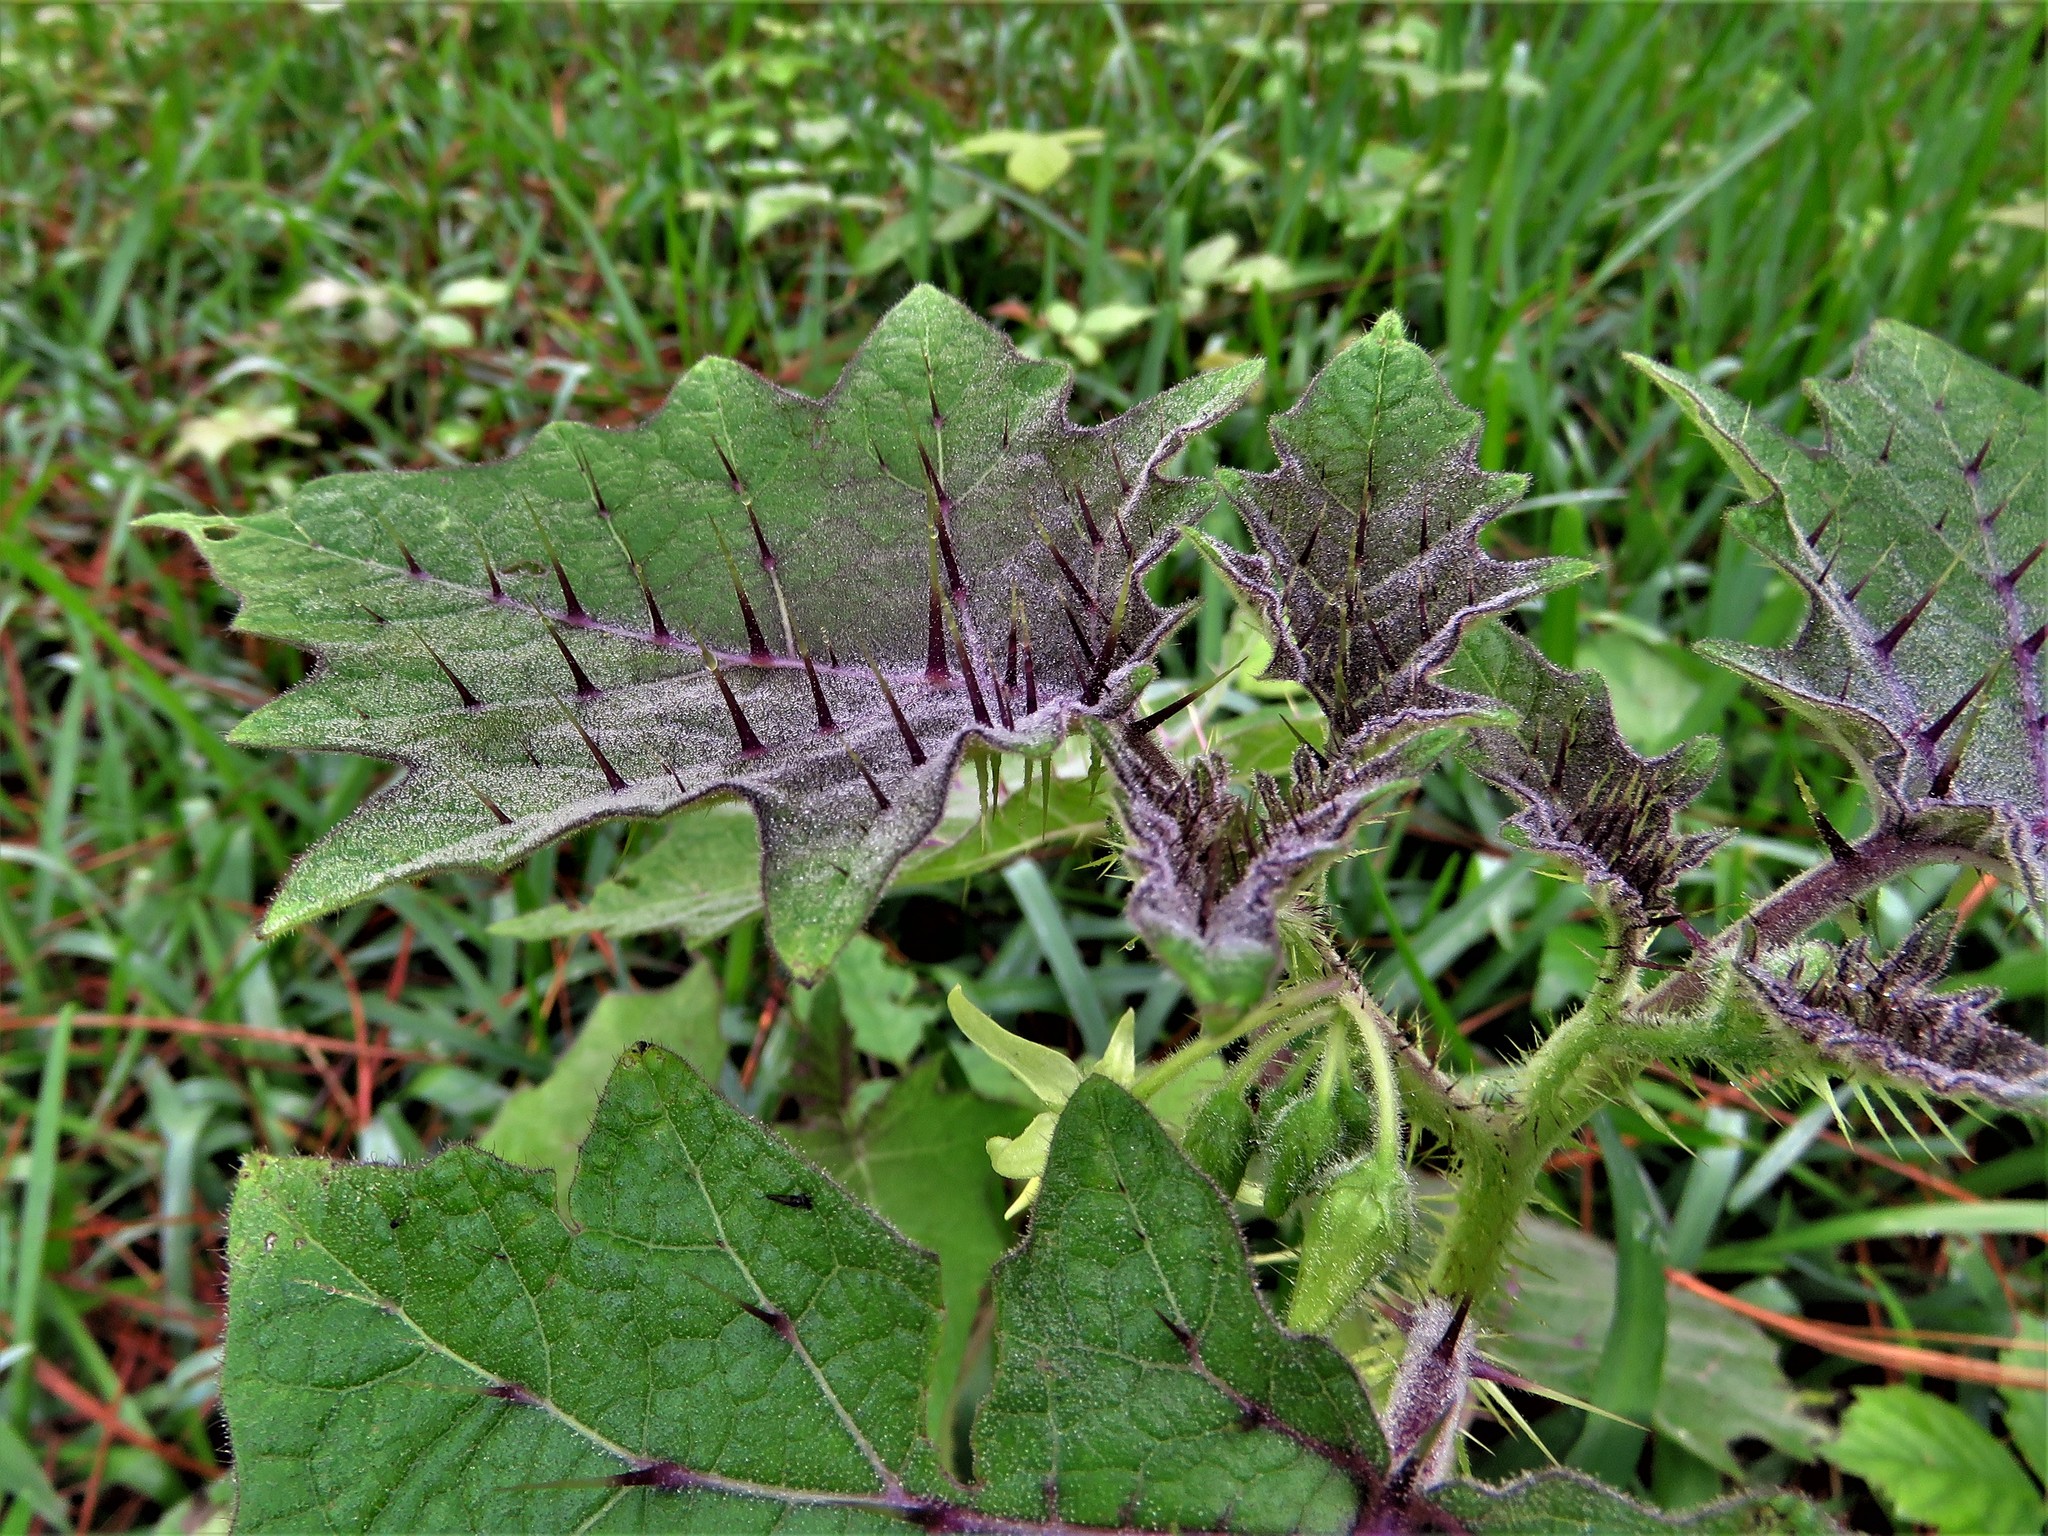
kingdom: Plantae
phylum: Tracheophyta
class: Magnoliopsida
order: Solanales
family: Solanaceae
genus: Solanum
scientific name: Solanum myriacanthum
